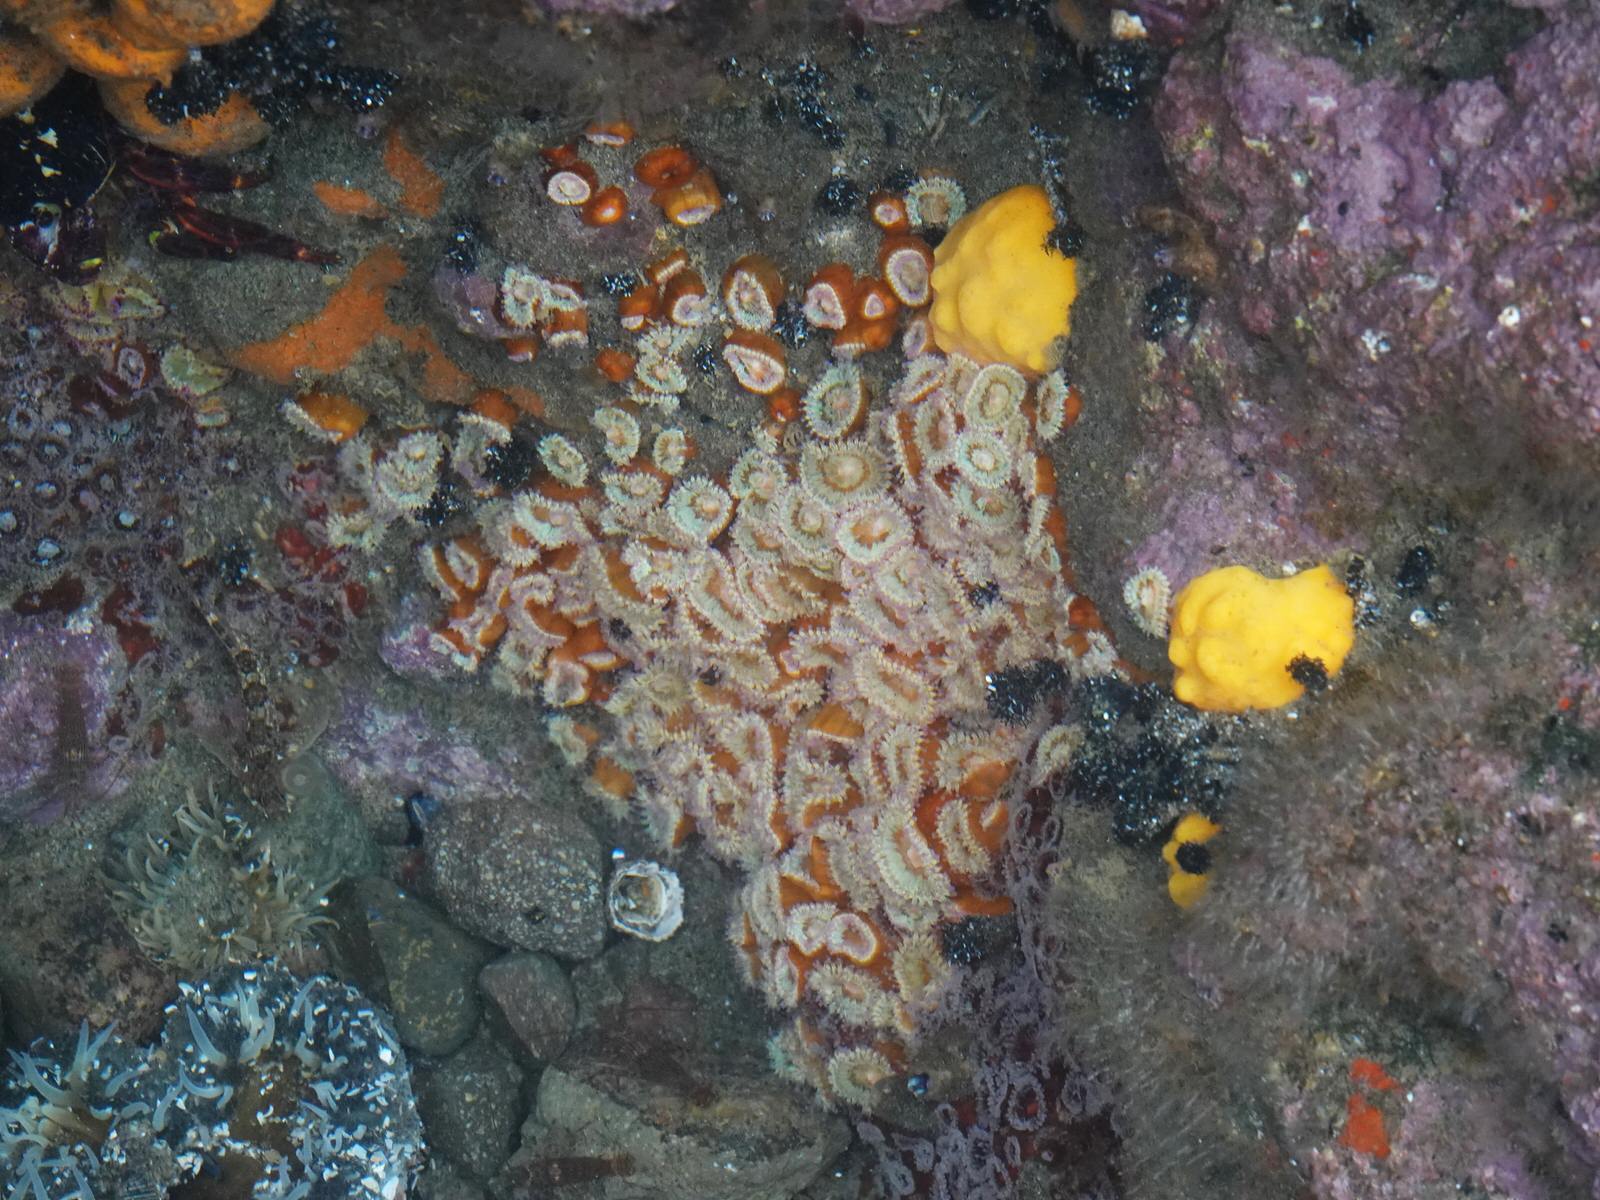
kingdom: Animalia
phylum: Porifera
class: Demospongiae
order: Polymastiida
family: Polymastiidae
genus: Polymastia
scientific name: Polymastia aurantia
